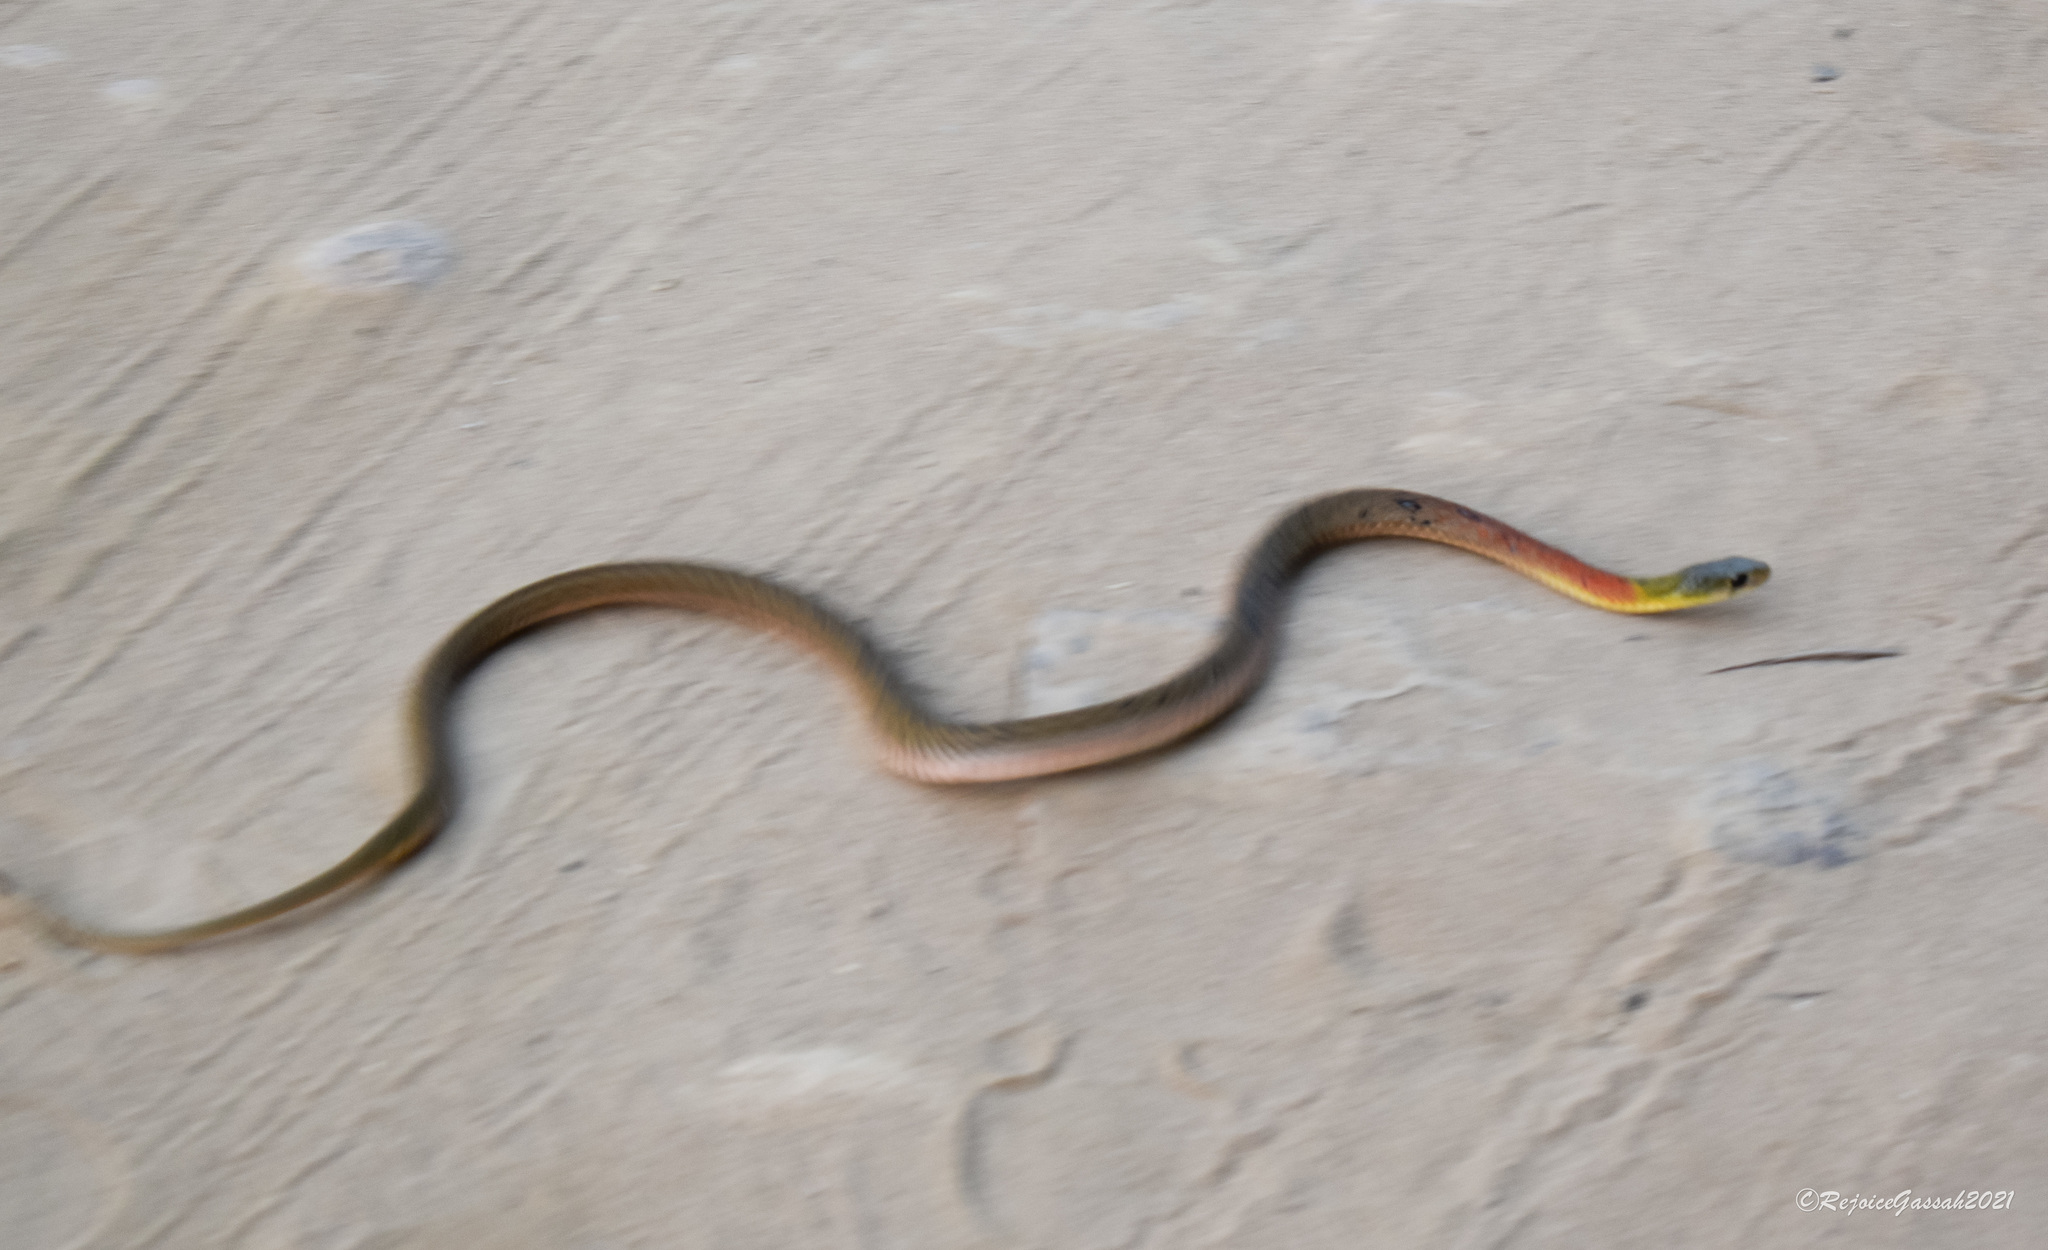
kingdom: Animalia
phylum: Chordata
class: Squamata
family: Colubridae
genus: Rhabdophis
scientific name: Rhabdophis helleri
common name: Heller’s red-necked keelback
